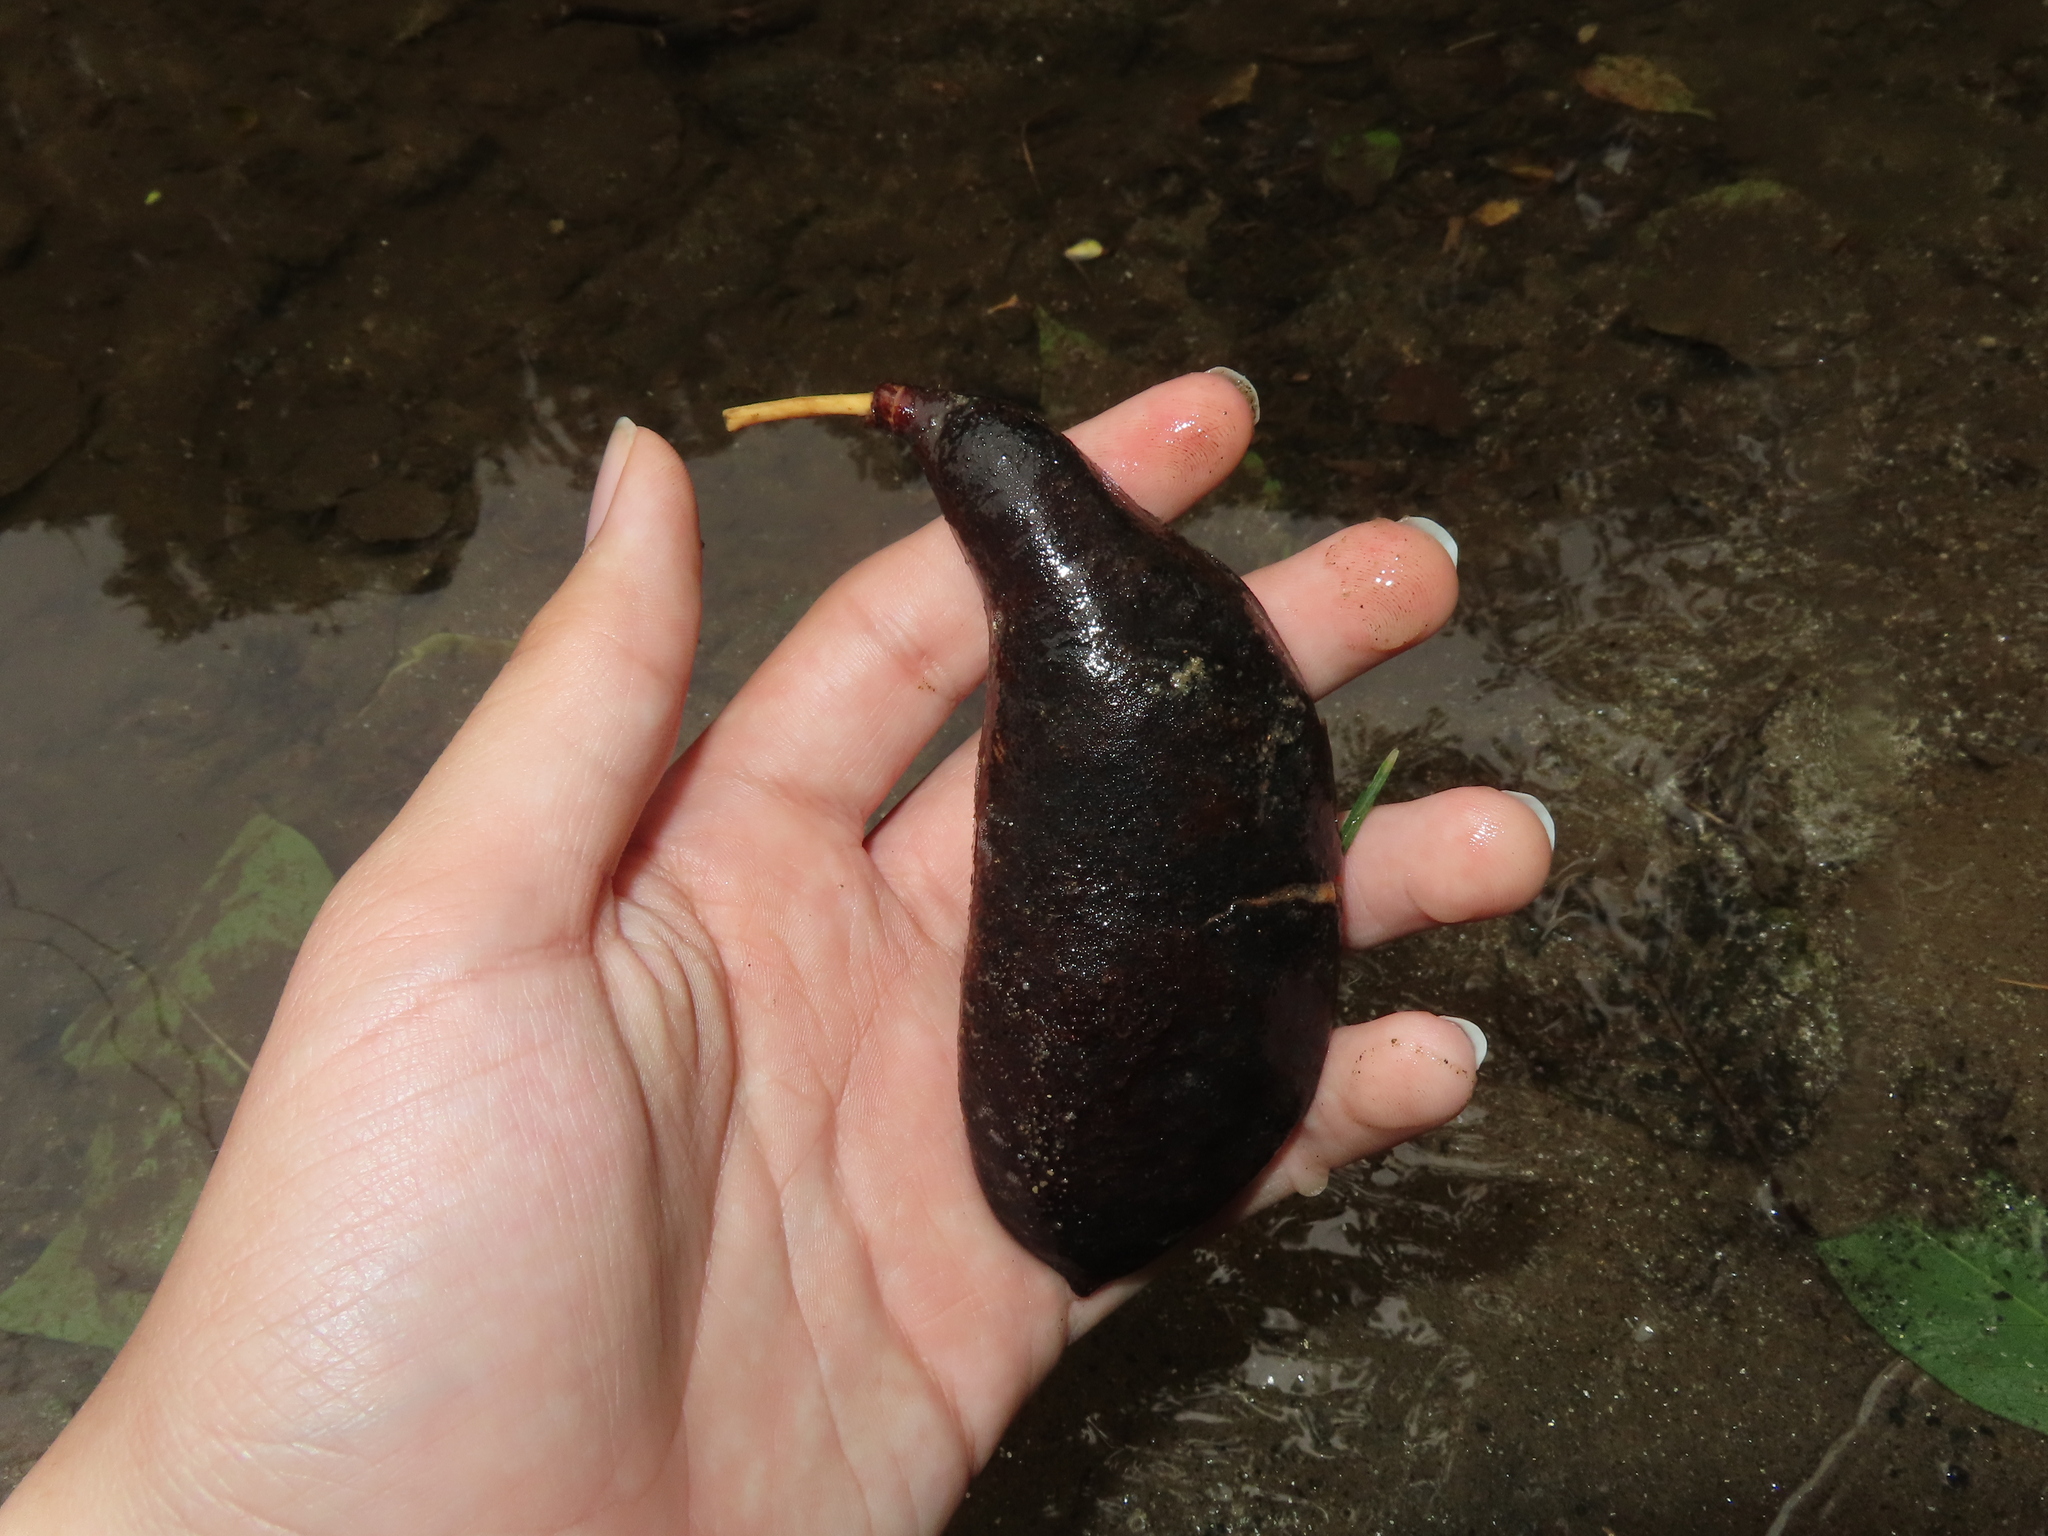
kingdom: Plantae
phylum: Tracheophyta
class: Magnoliopsida
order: Fabales
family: Fabaceae
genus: Gymnocladus
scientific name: Gymnocladus dioicus
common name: Kentucky coffee-tree
